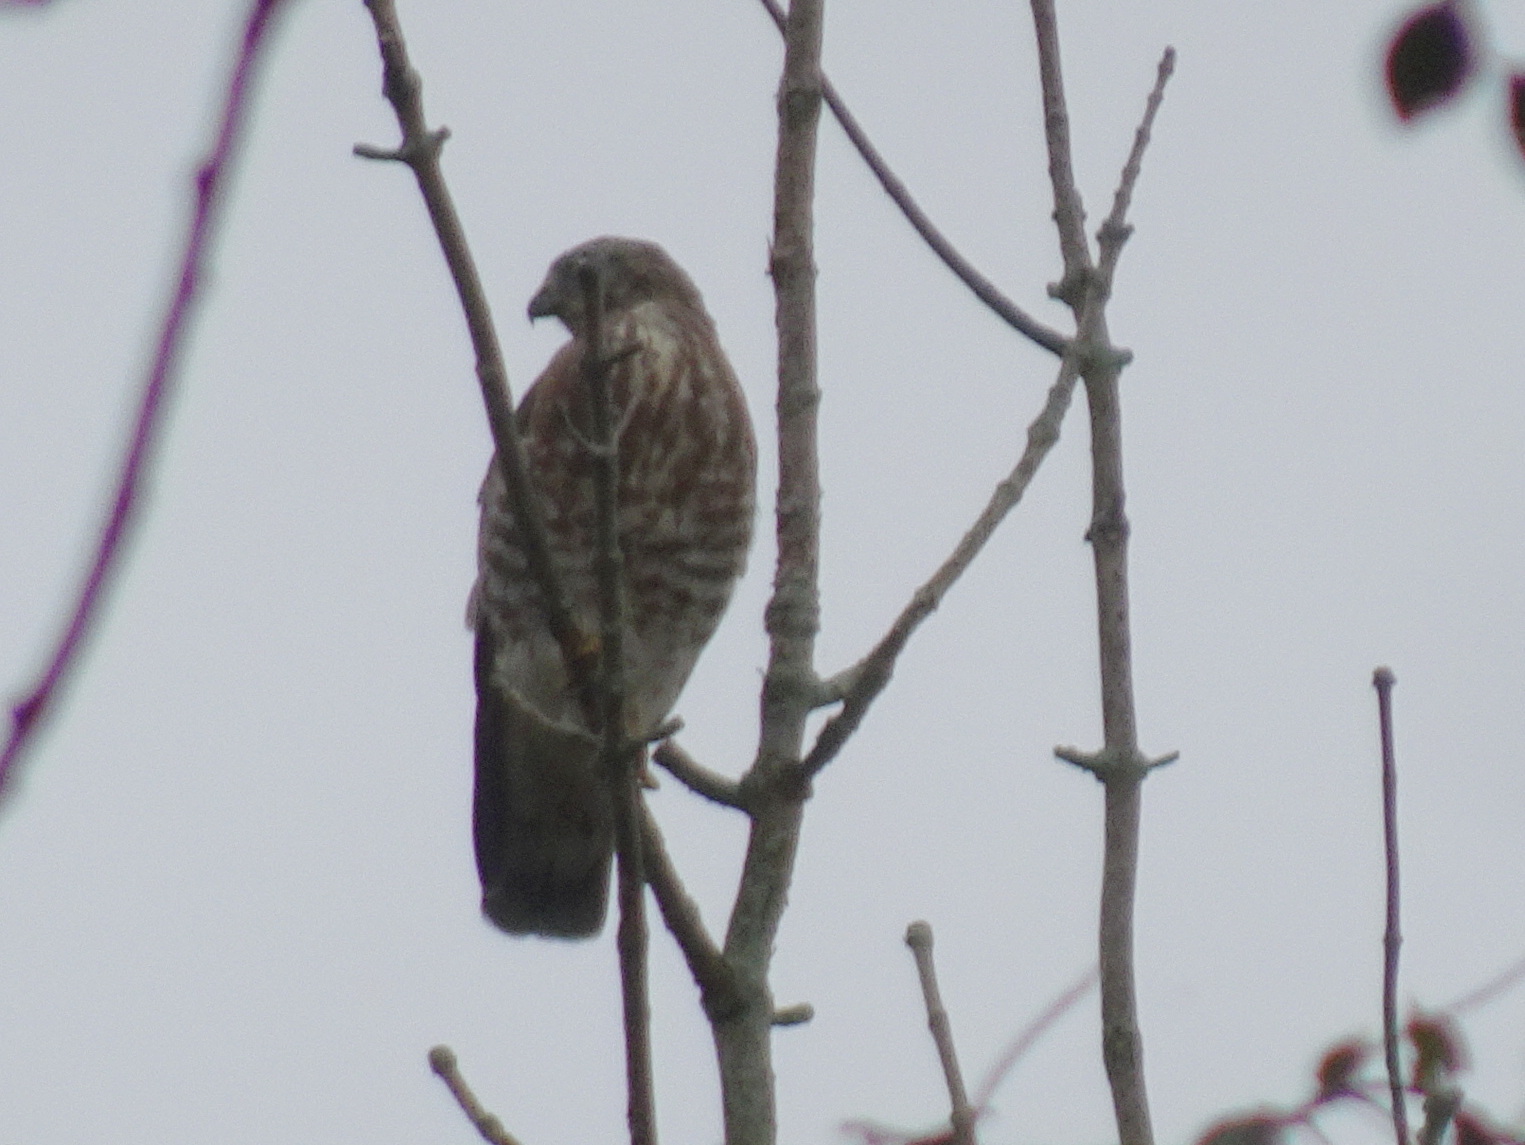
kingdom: Animalia
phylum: Chordata
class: Aves
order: Accipitriformes
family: Accipitridae
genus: Buteo
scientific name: Buteo platypterus
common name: Broad-winged hawk
